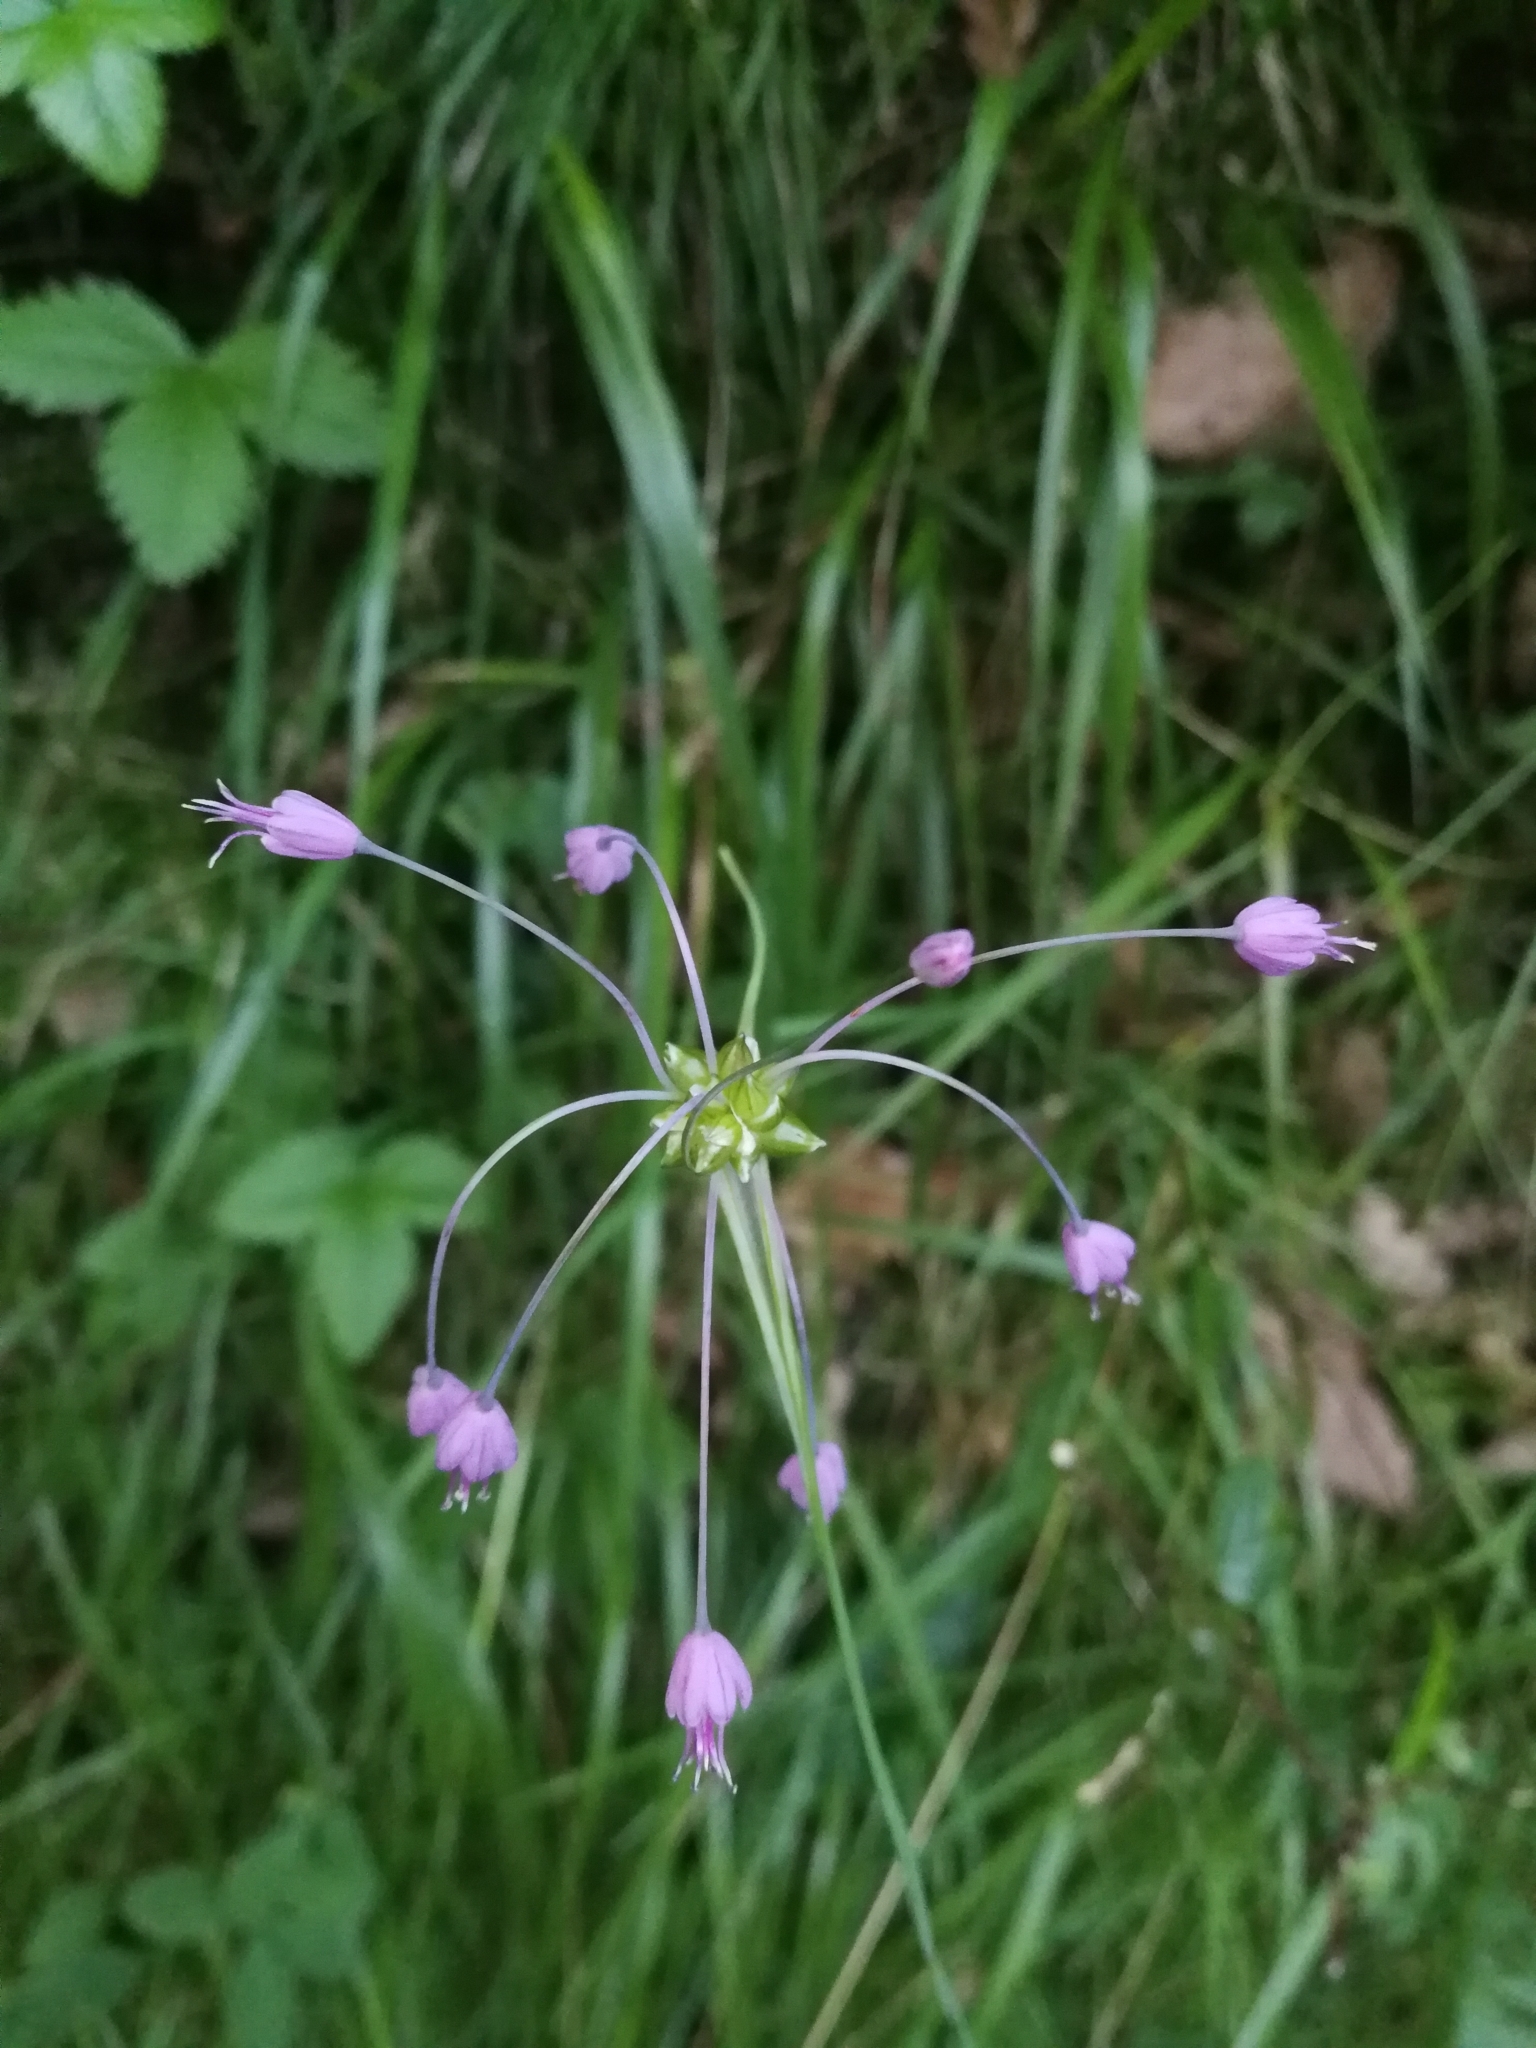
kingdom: Plantae
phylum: Tracheophyta
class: Liliopsida
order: Asparagales
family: Amaryllidaceae
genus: Allium
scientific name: Allium carinatum
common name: Keeled garlic
